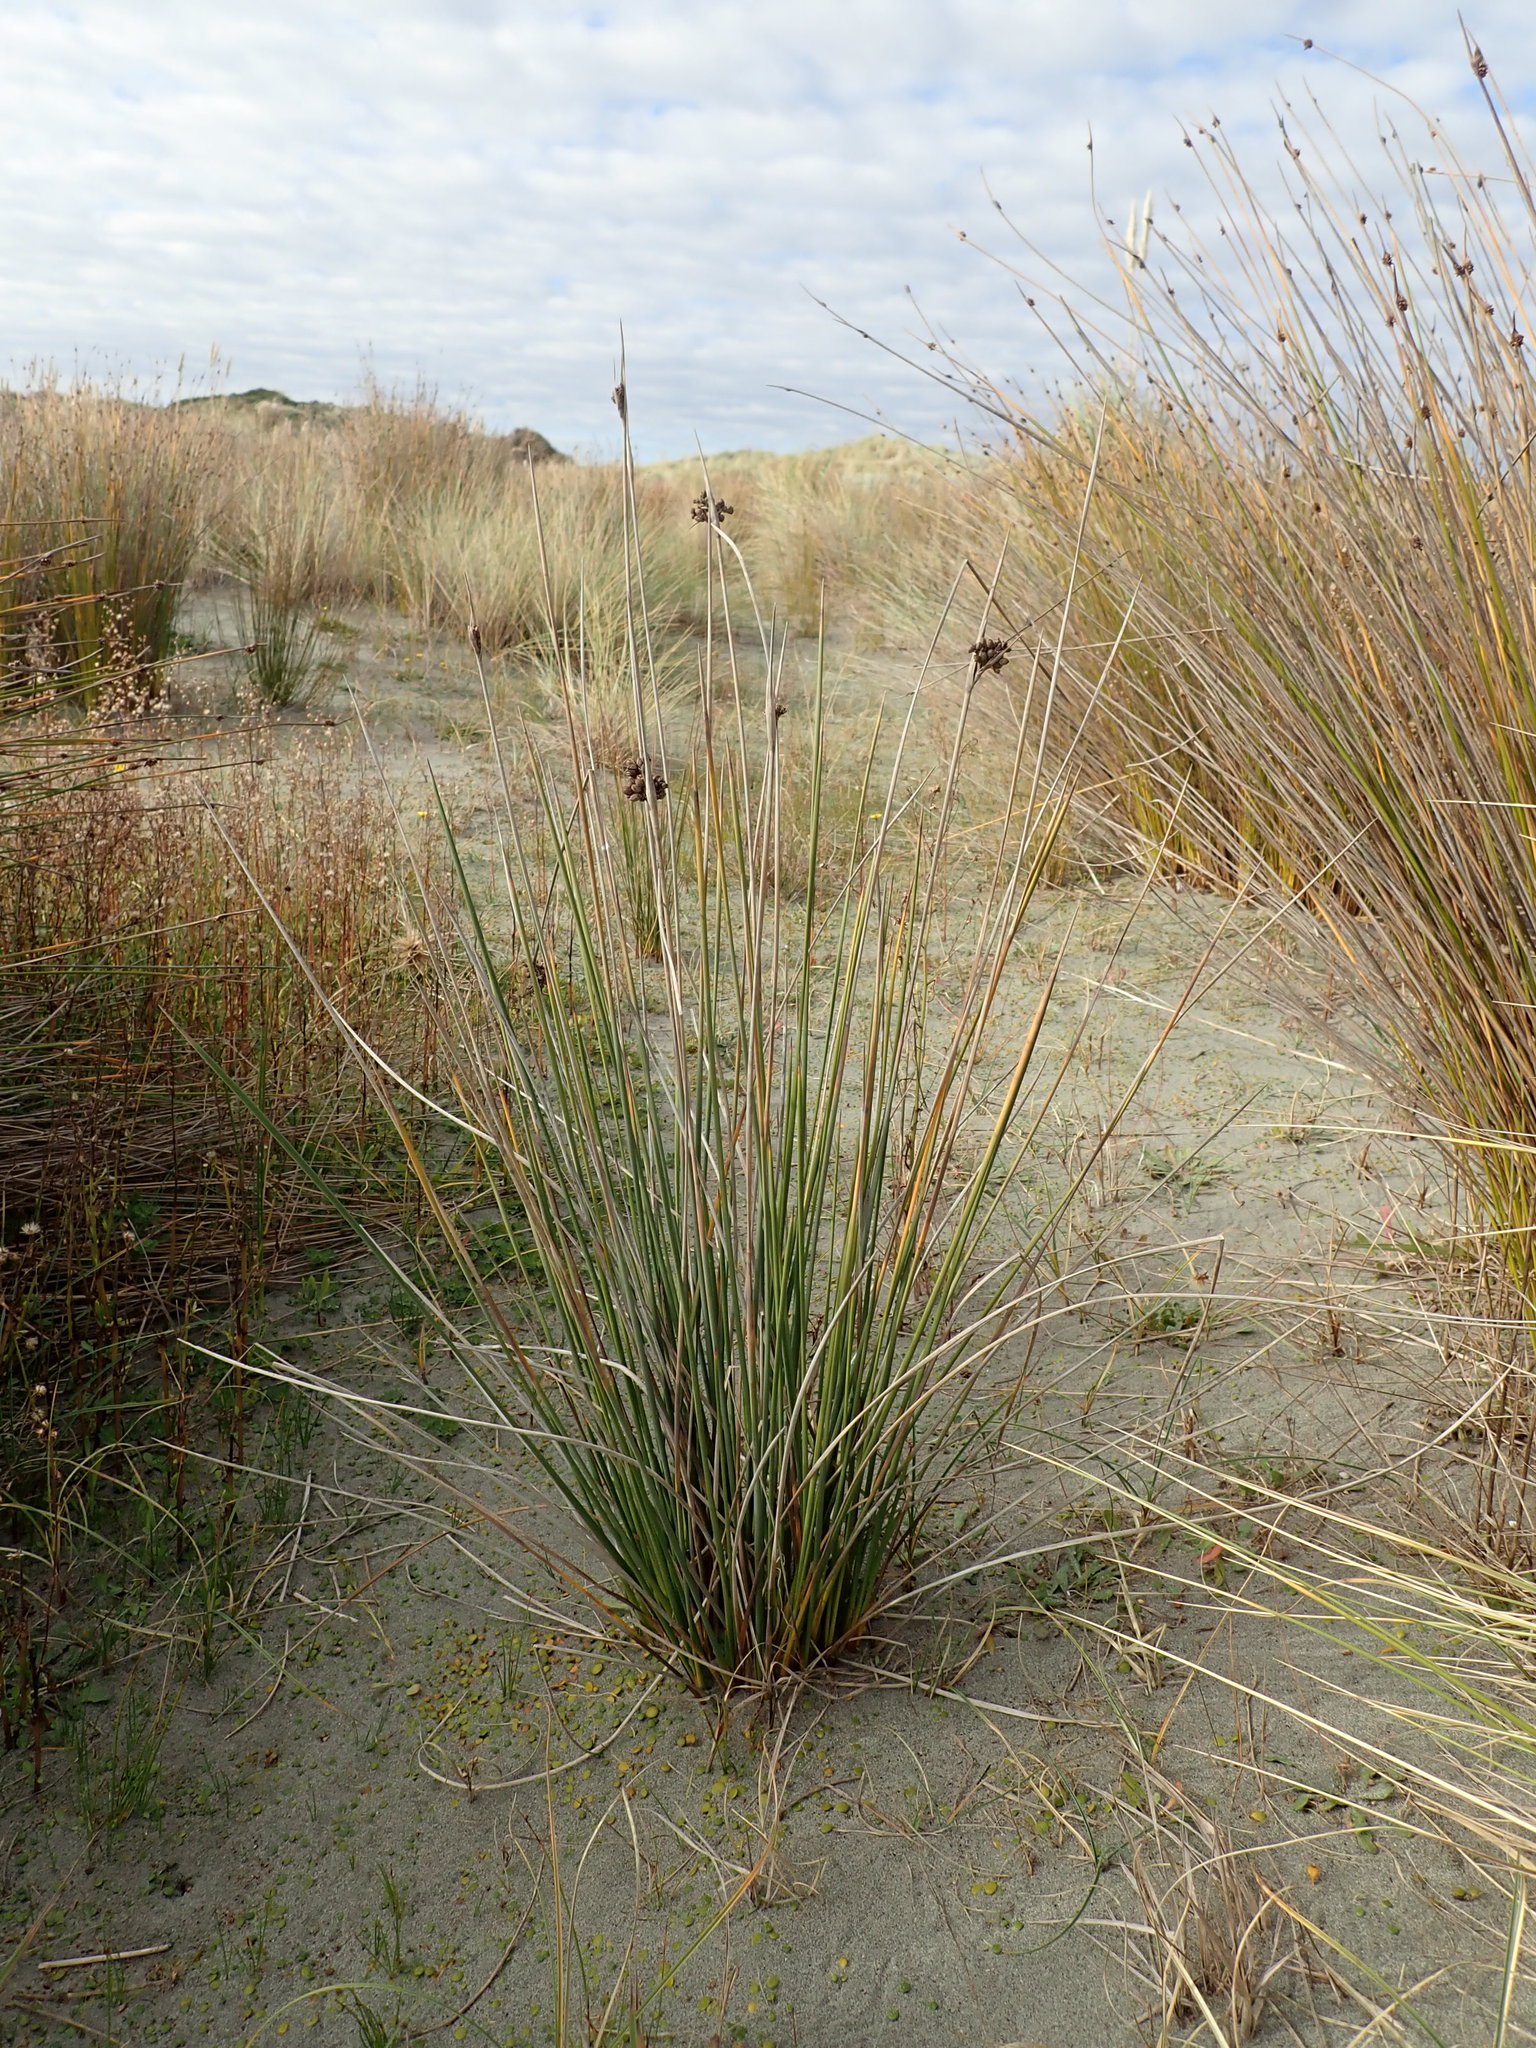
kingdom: Plantae
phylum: Tracheophyta
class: Liliopsida
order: Poales
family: Juncaceae
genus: Juncus
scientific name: Juncus acutus
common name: Sharp rush
